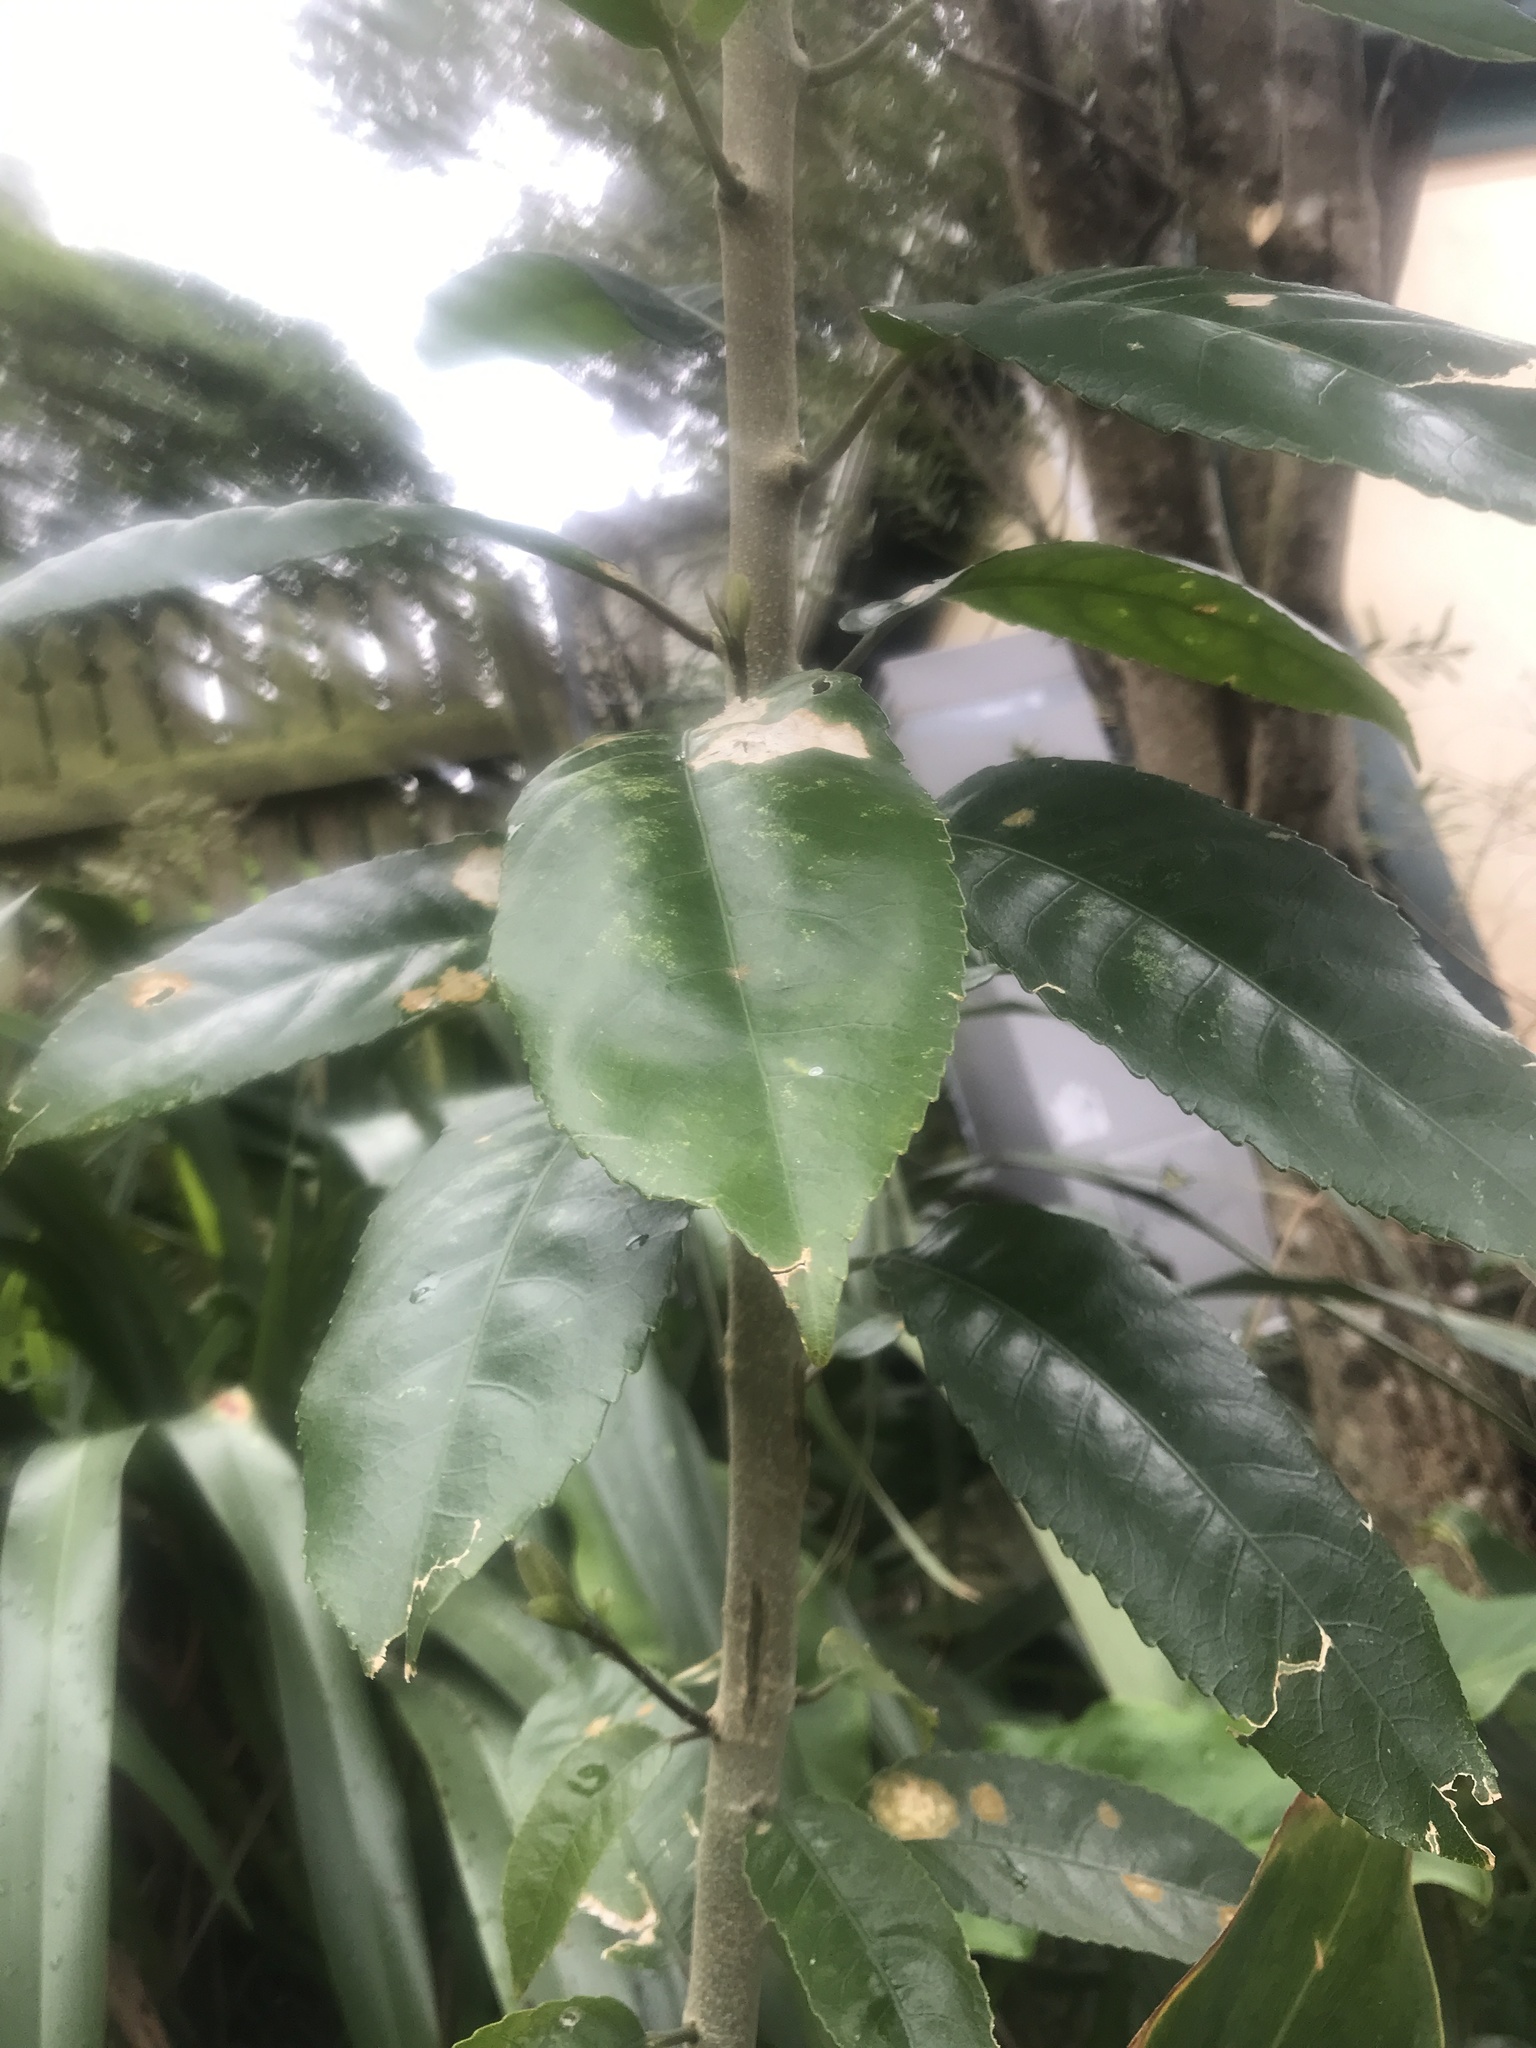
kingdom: Plantae
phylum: Tracheophyta
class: Magnoliopsida
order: Malpighiales
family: Violaceae
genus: Melicytus
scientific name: Melicytus ramiflorus
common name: Mahoe
